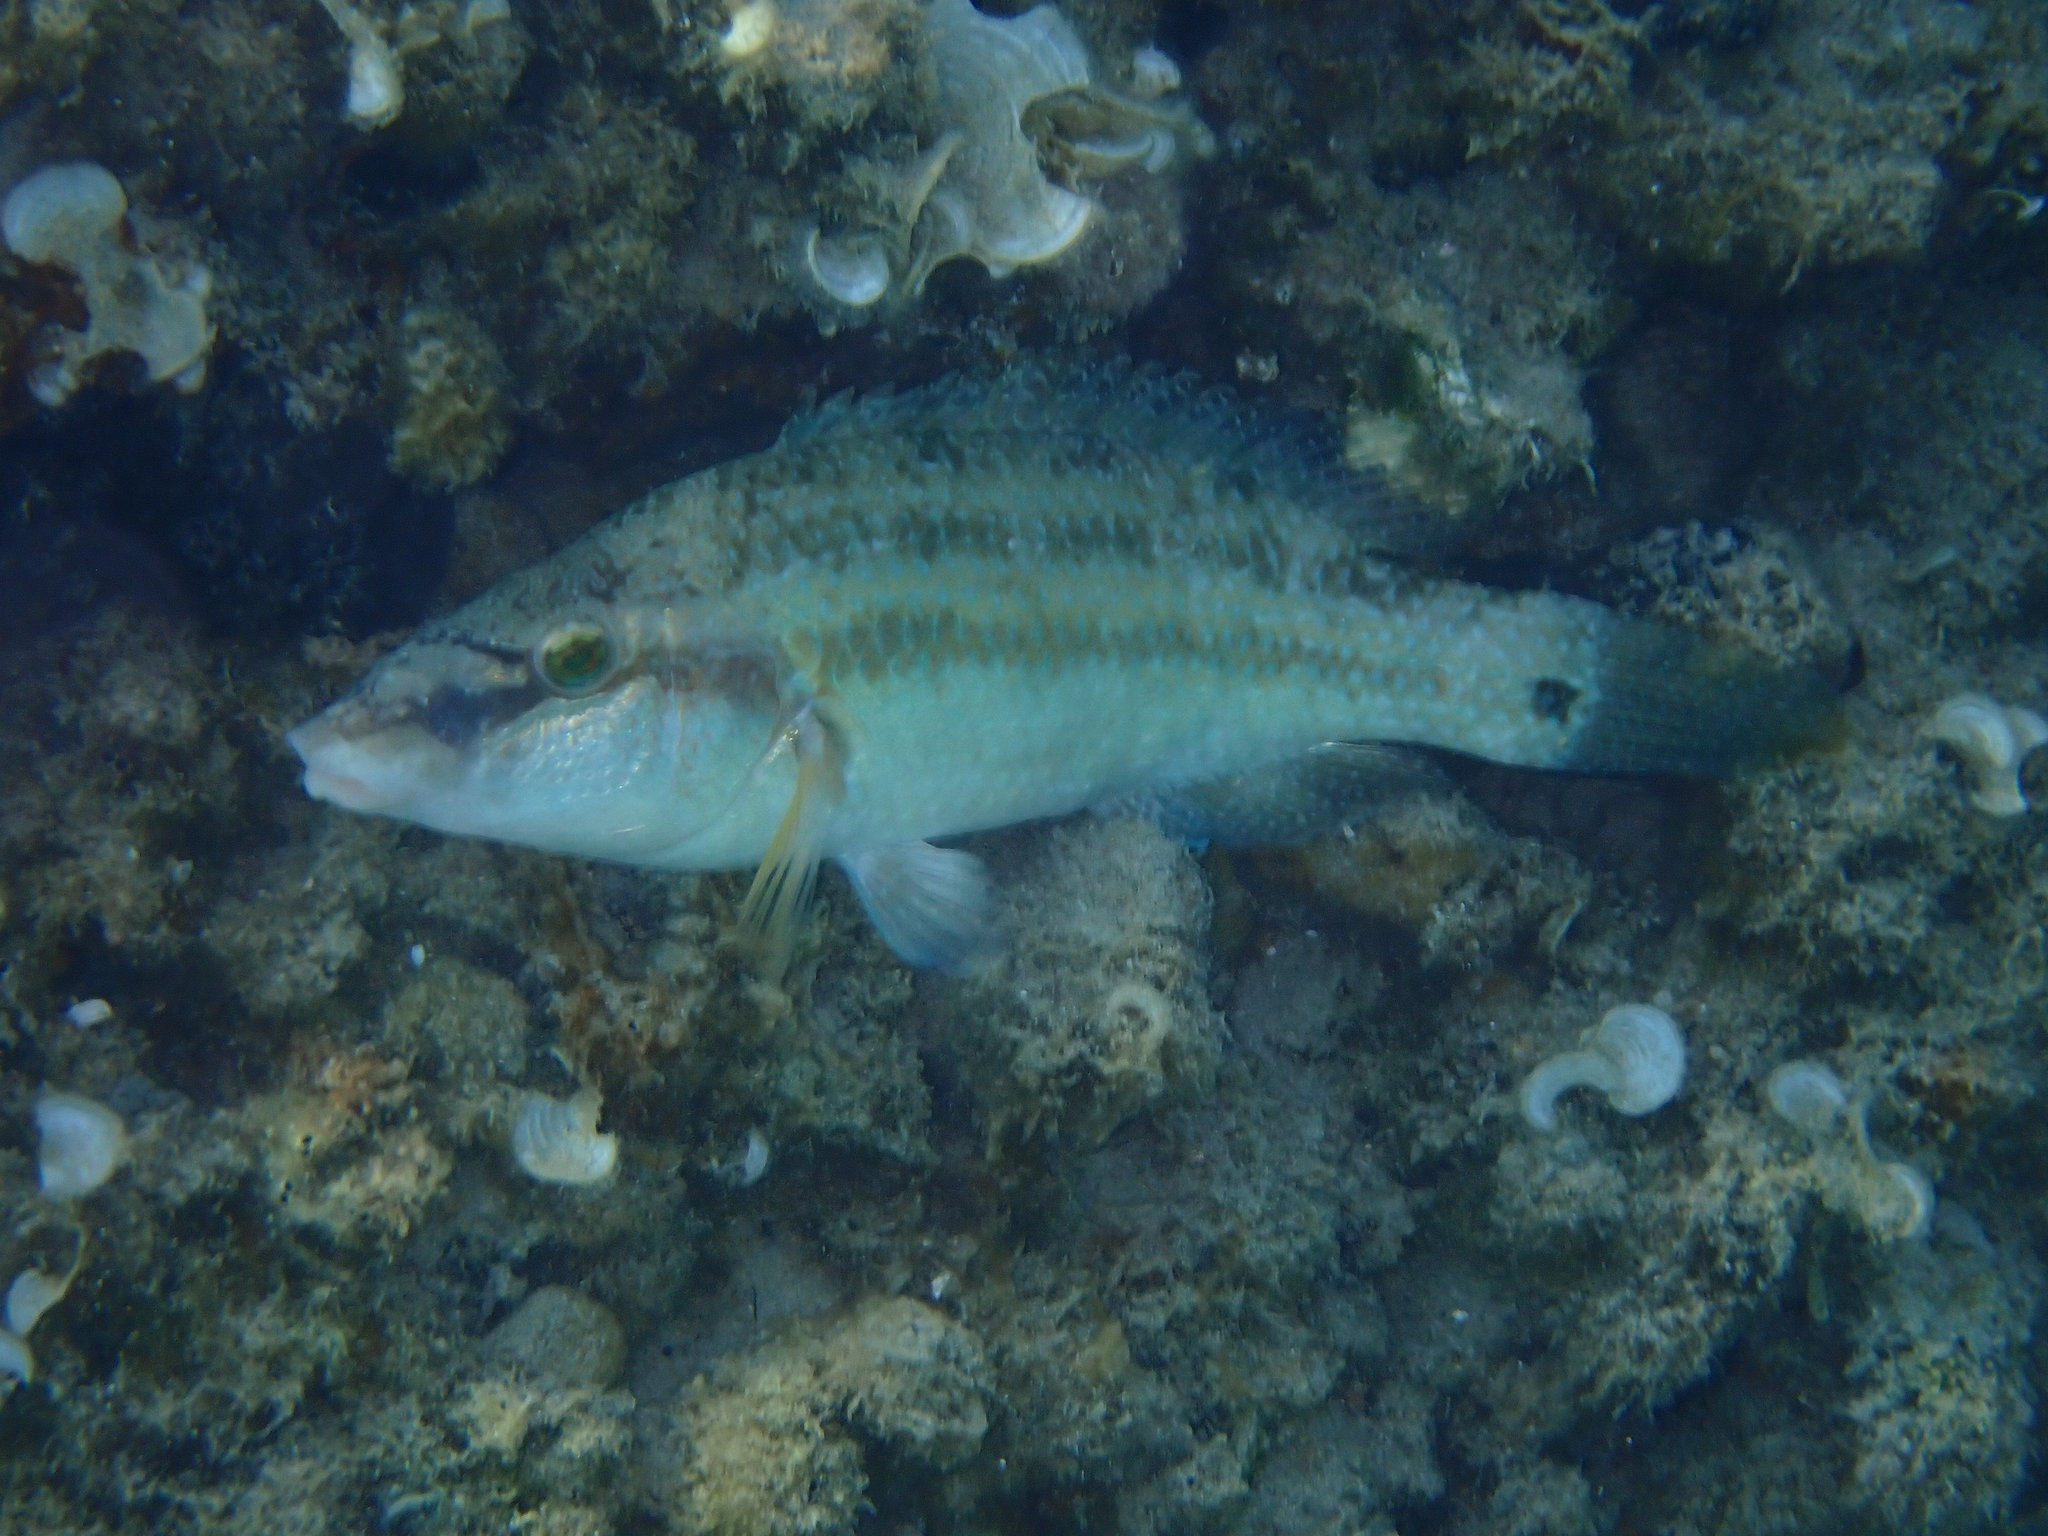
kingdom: Animalia
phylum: Chordata
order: Perciformes
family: Labridae
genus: Symphodus
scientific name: Symphodus tinca
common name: Peacock wrasse
